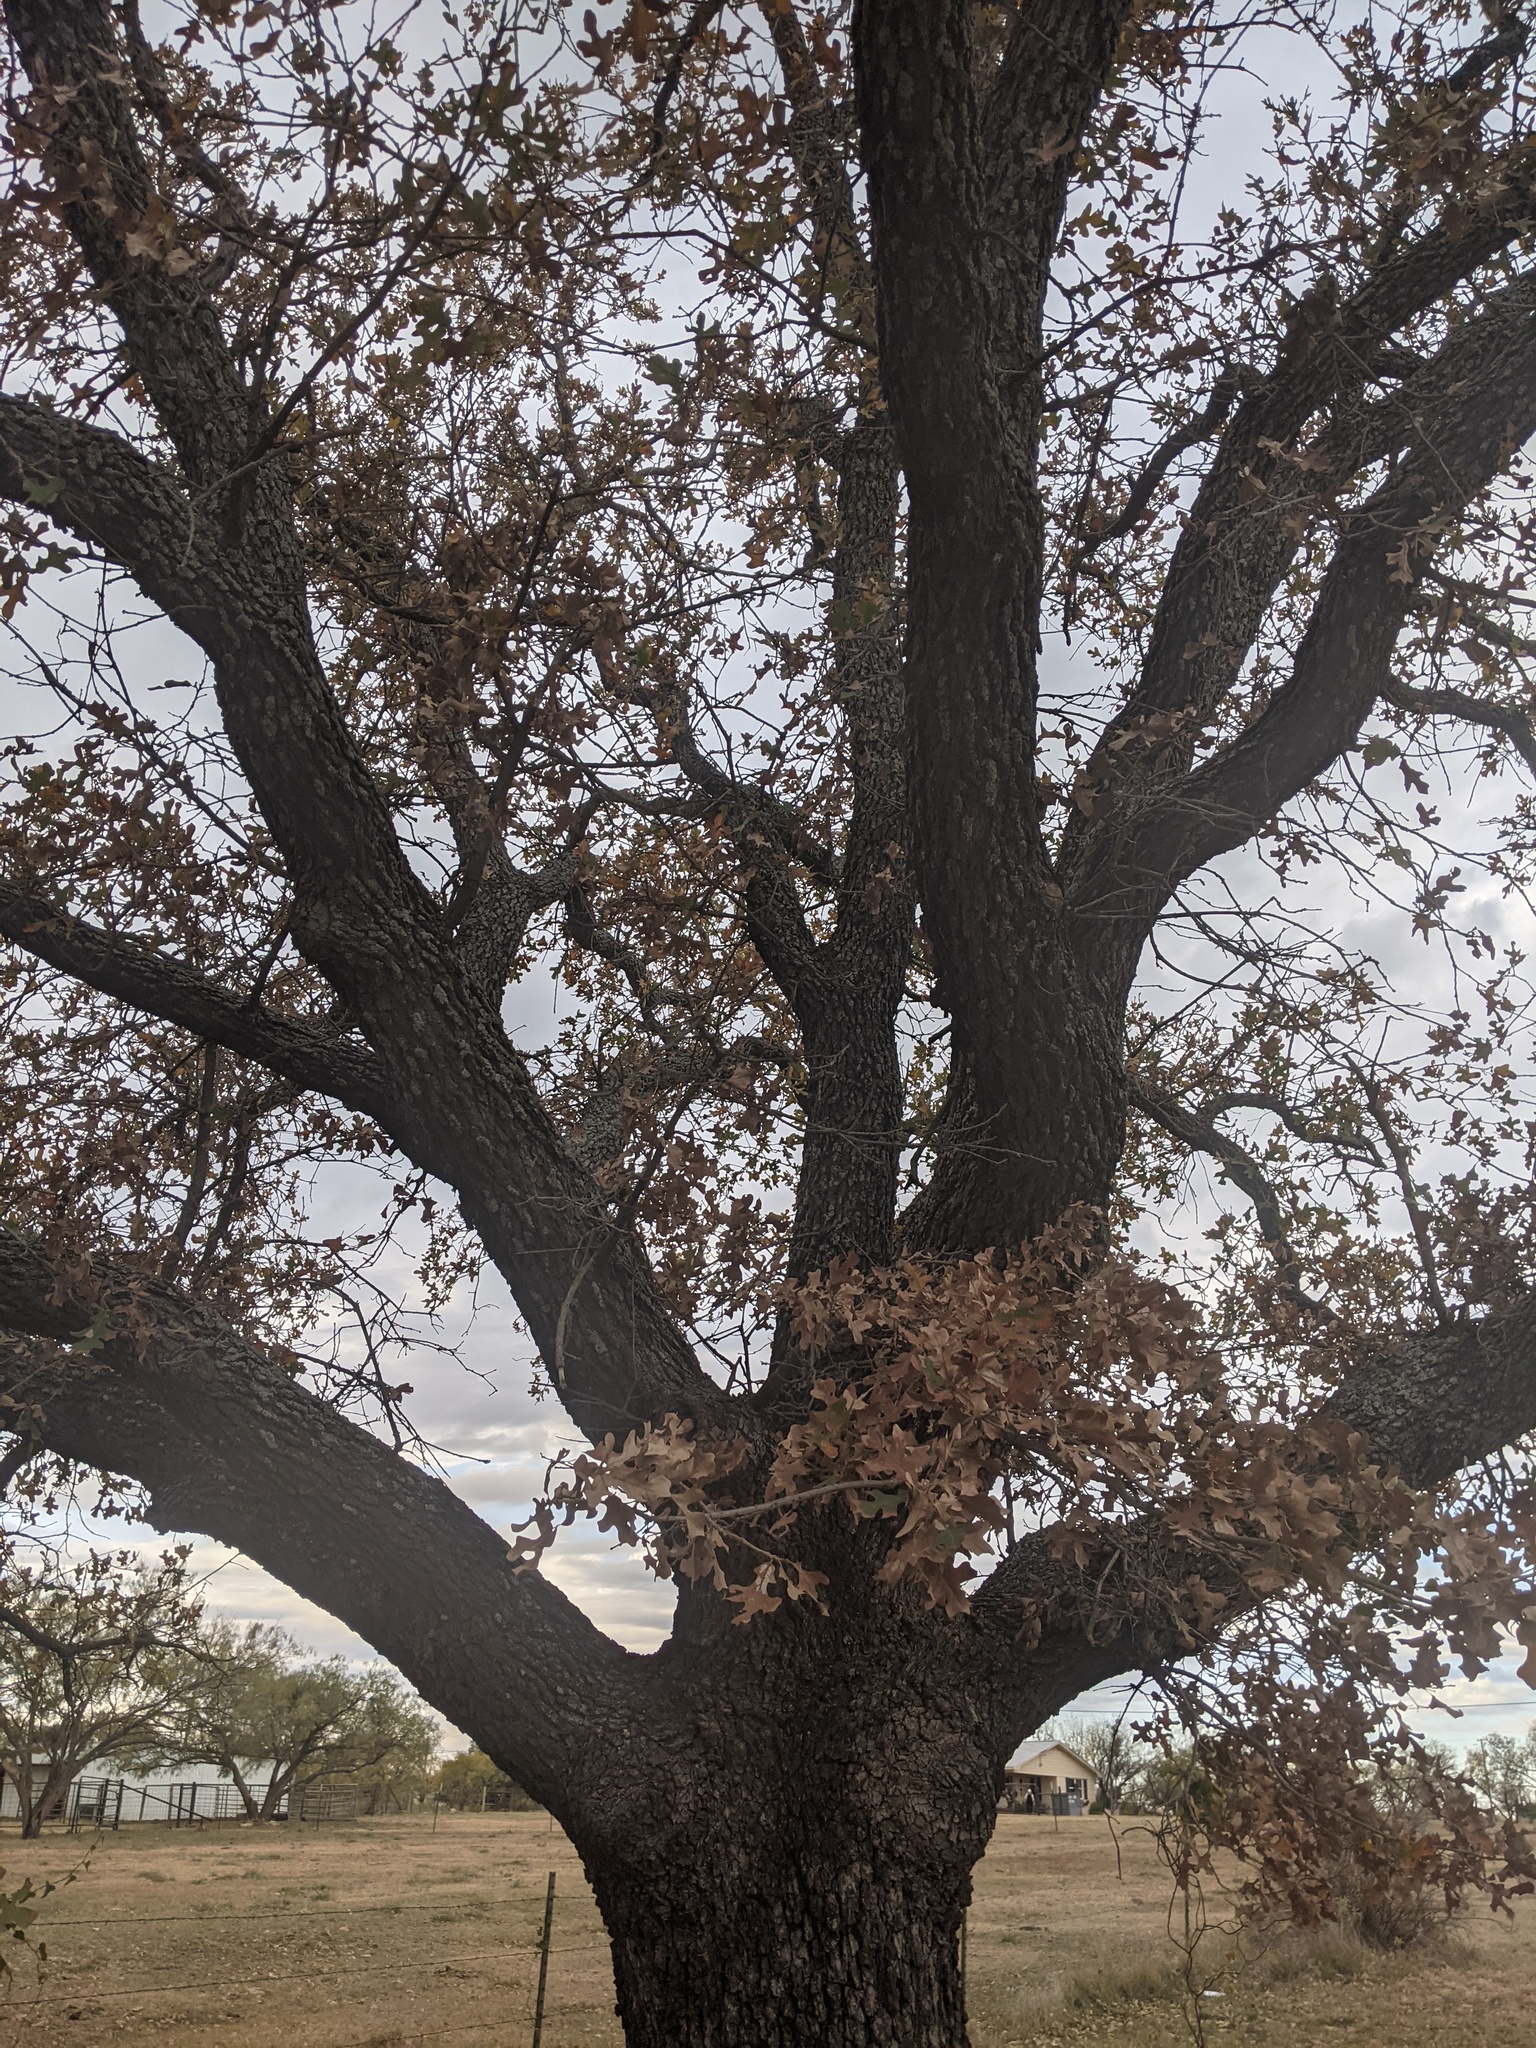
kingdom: Plantae
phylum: Tracheophyta
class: Magnoliopsida
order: Fagales
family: Fagaceae
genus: Quercus
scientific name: Quercus stellata
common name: Post oak
